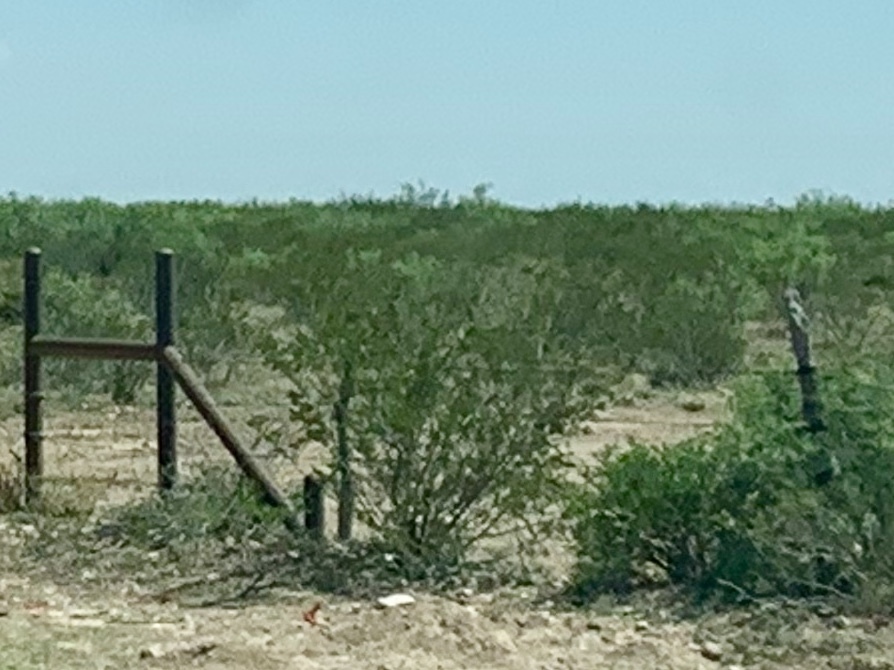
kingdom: Plantae
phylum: Tracheophyta
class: Magnoliopsida
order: Zygophyllales
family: Zygophyllaceae
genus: Larrea
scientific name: Larrea tridentata
